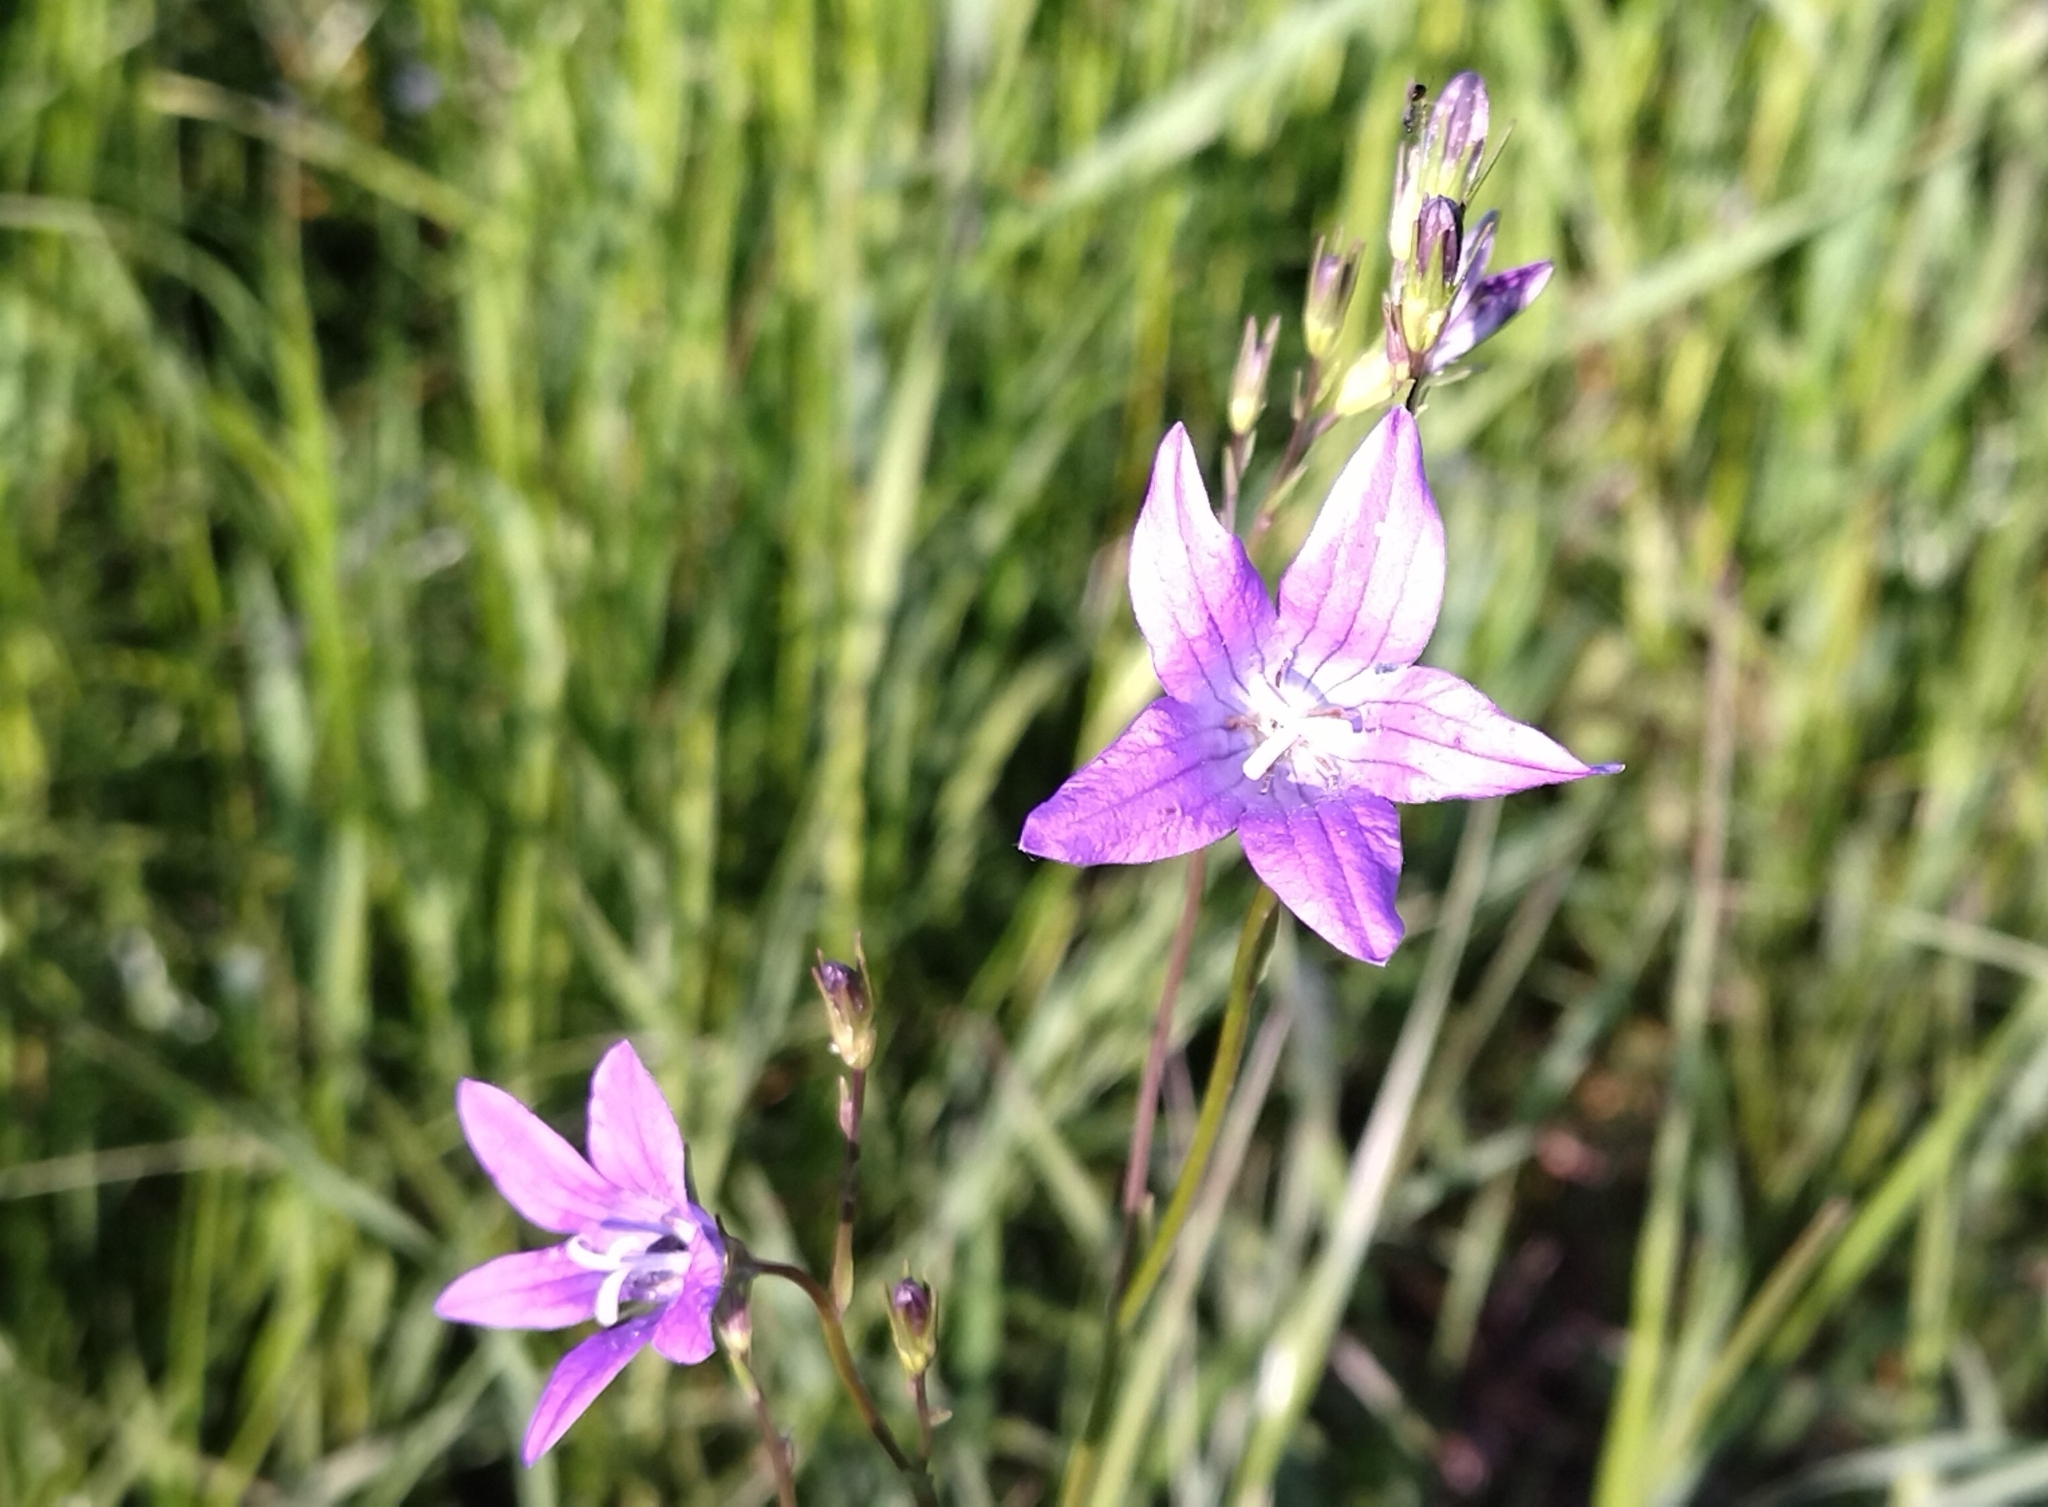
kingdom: Plantae
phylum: Tracheophyta
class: Magnoliopsida
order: Asterales
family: Campanulaceae
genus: Campanula
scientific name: Campanula patula
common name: Spreading bellflower
